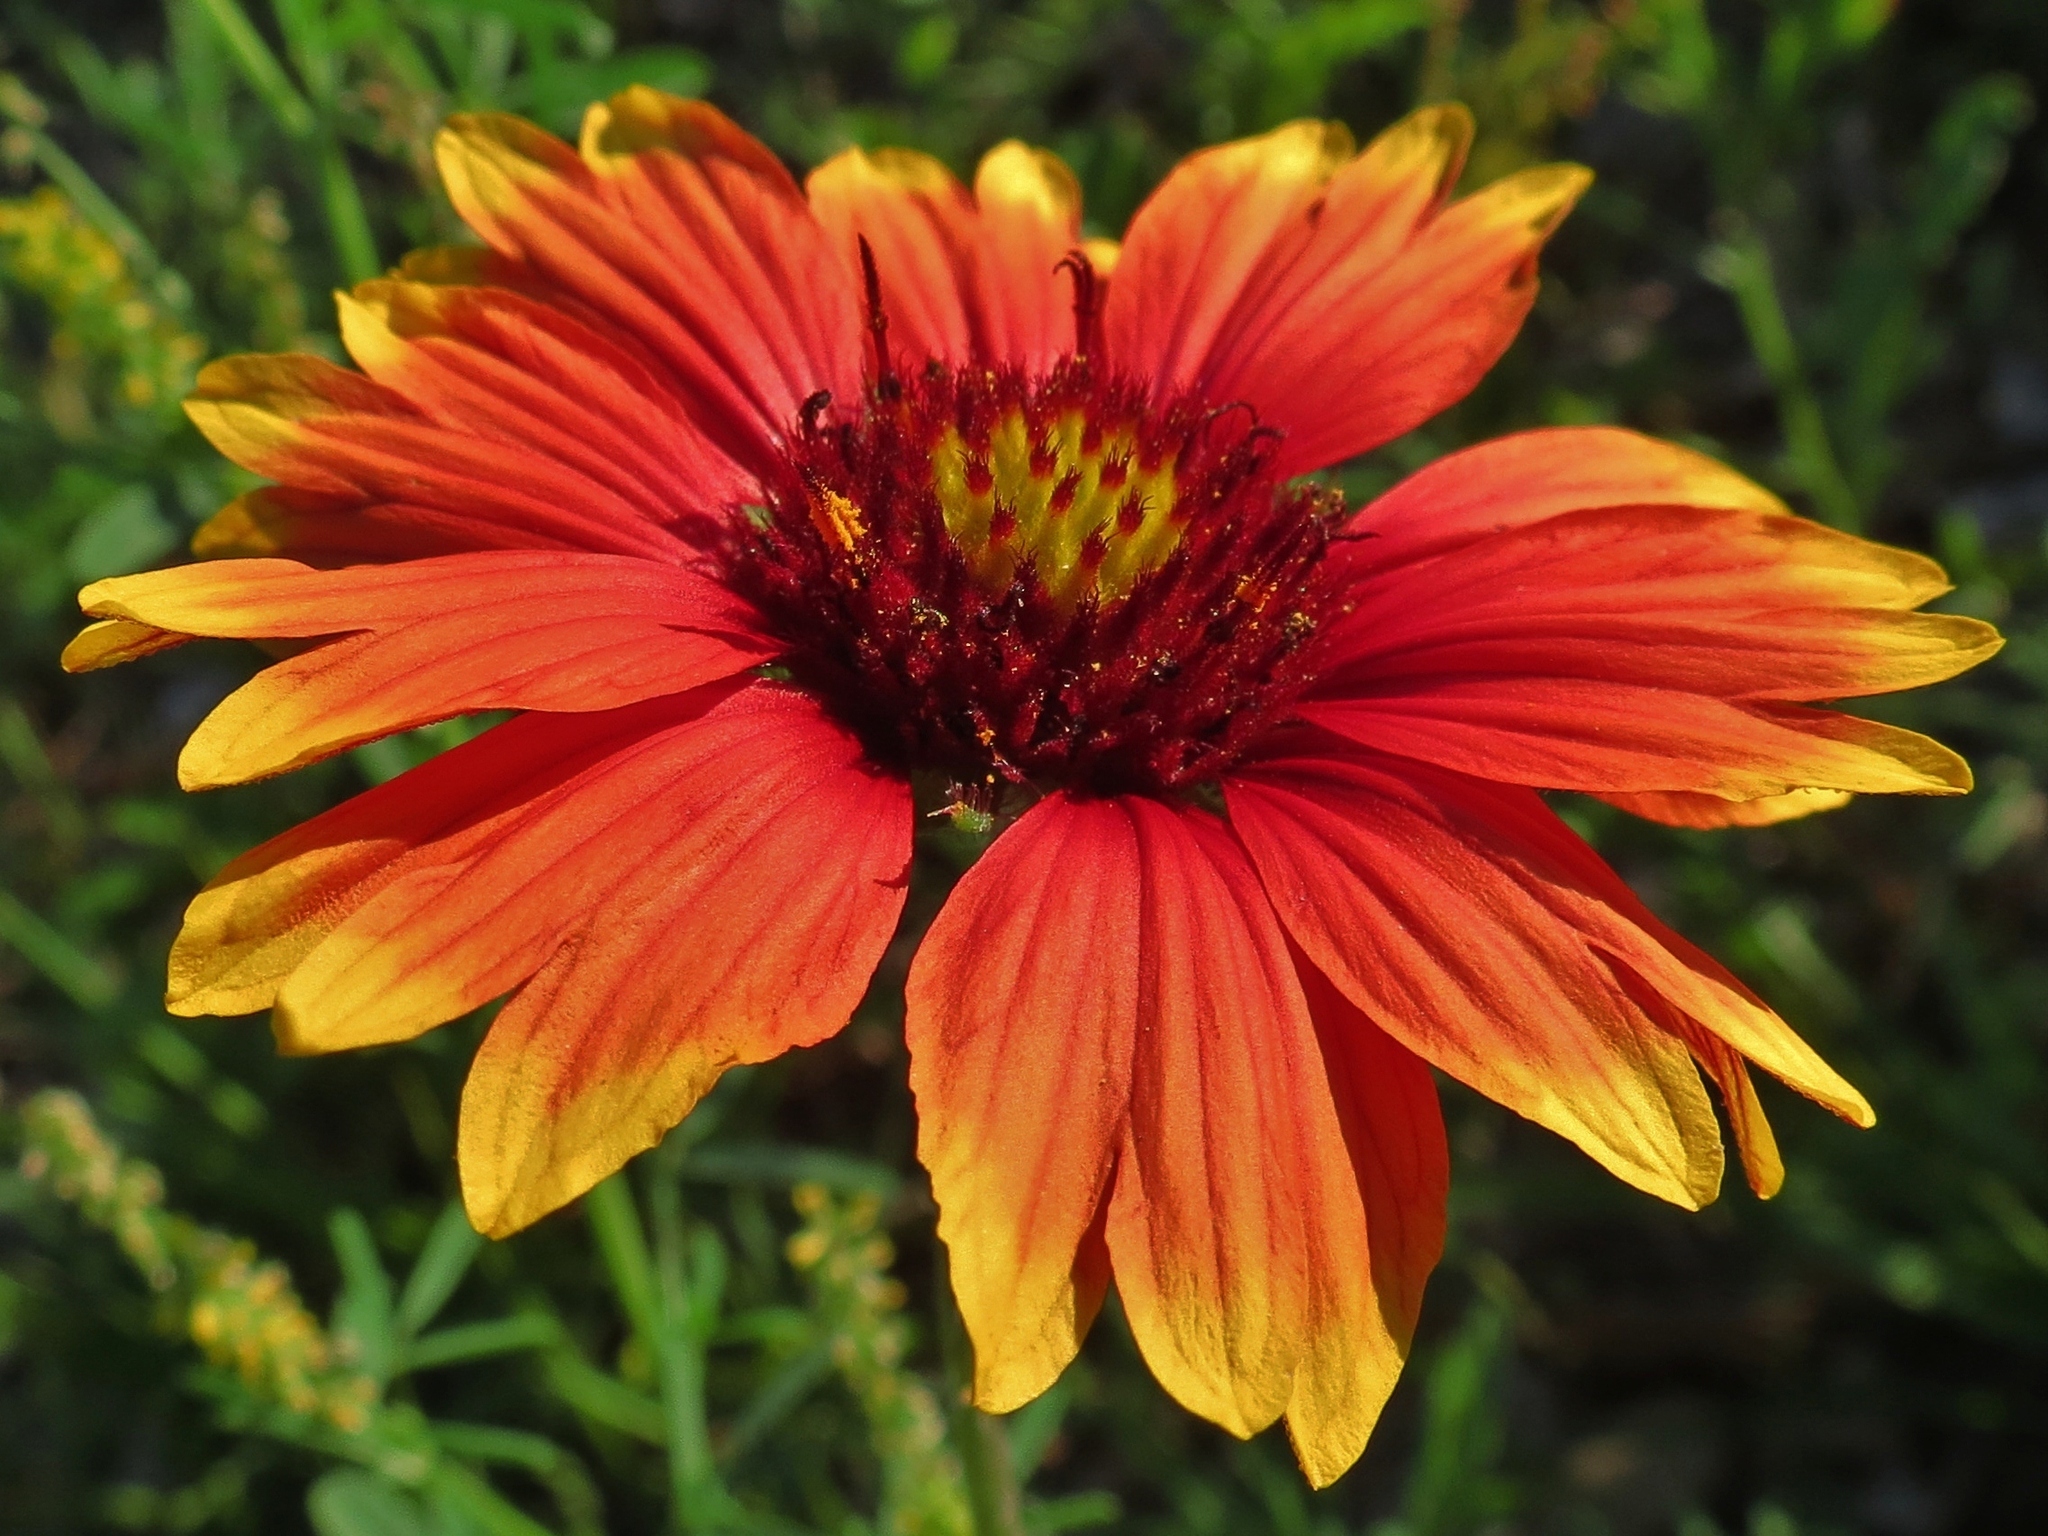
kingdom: Plantae
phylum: Tracheophyta
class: Magnoliopsida
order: Asterales
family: Asteraceae
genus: Gaillardia
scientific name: Gaillardia pulchella
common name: Firewheel
